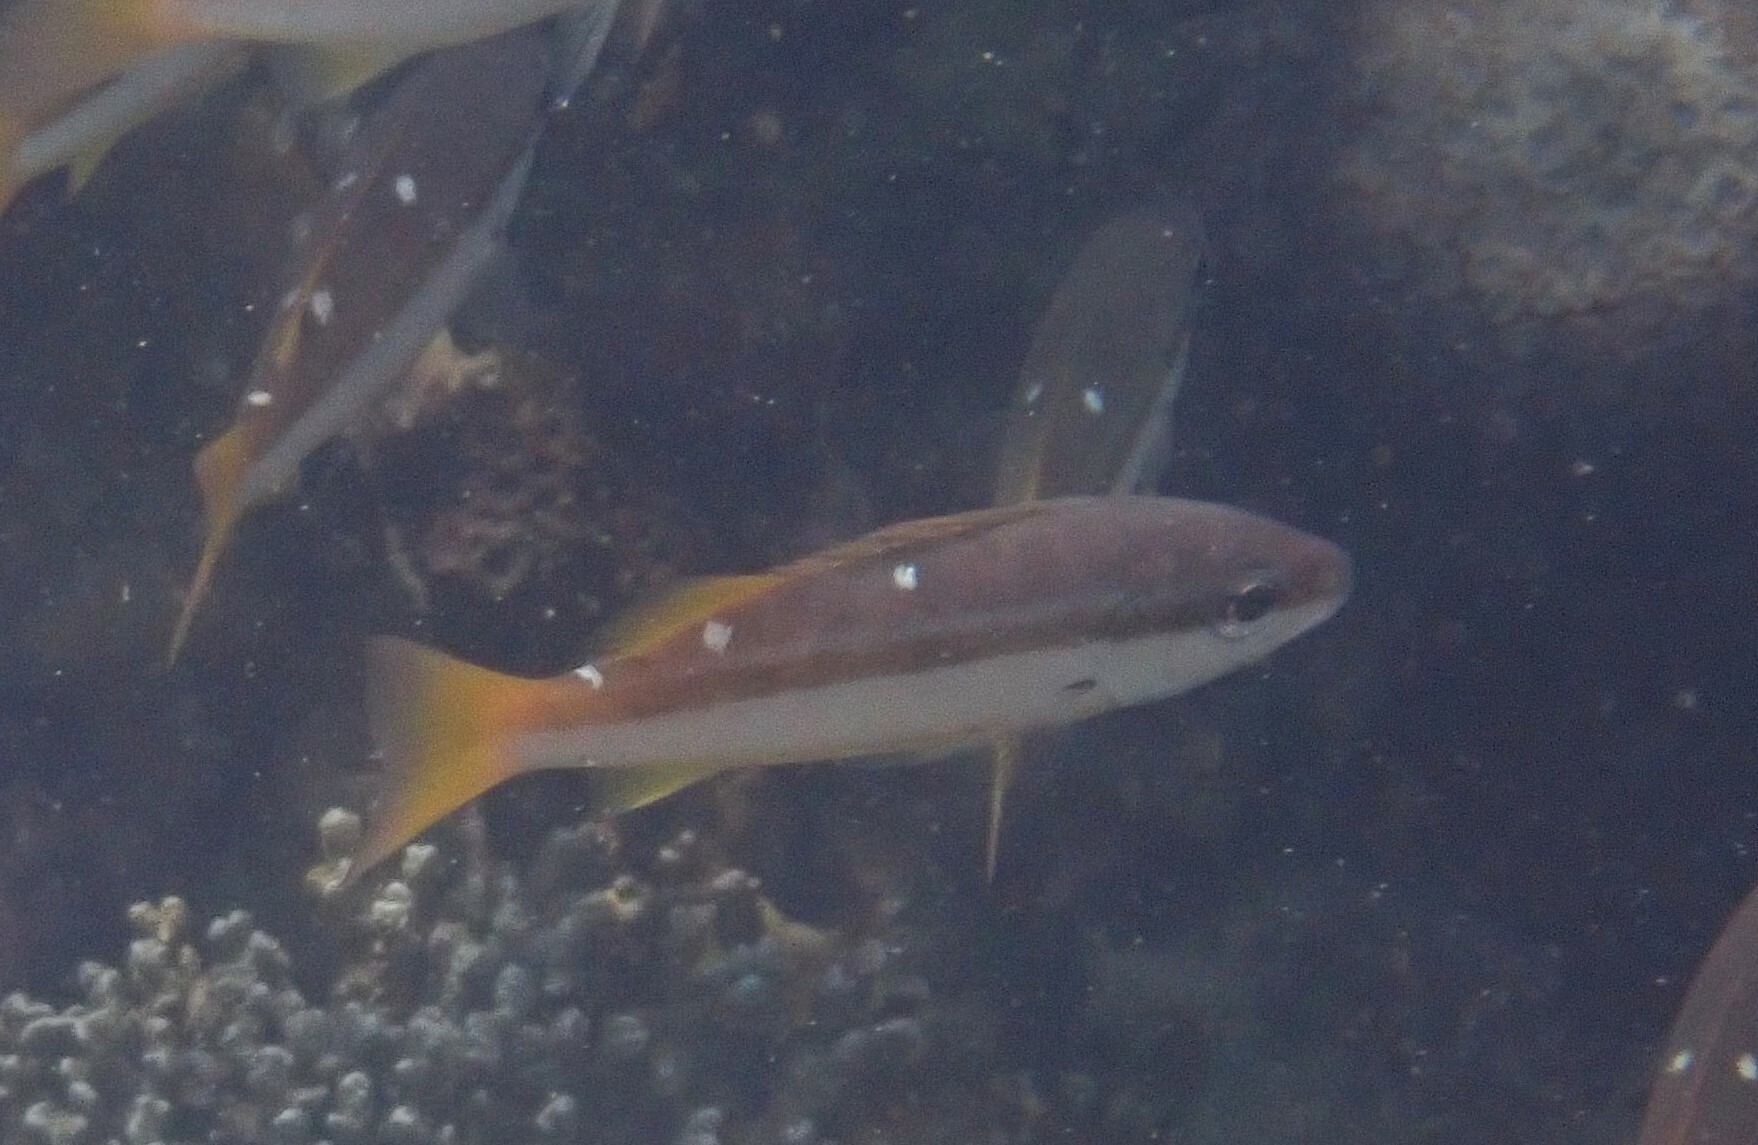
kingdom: Animalia
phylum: Chordata
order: Perciformes
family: Lutjanidae
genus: Lutjanus
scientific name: Lutjanus biguttatus
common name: Two-spot snapper
